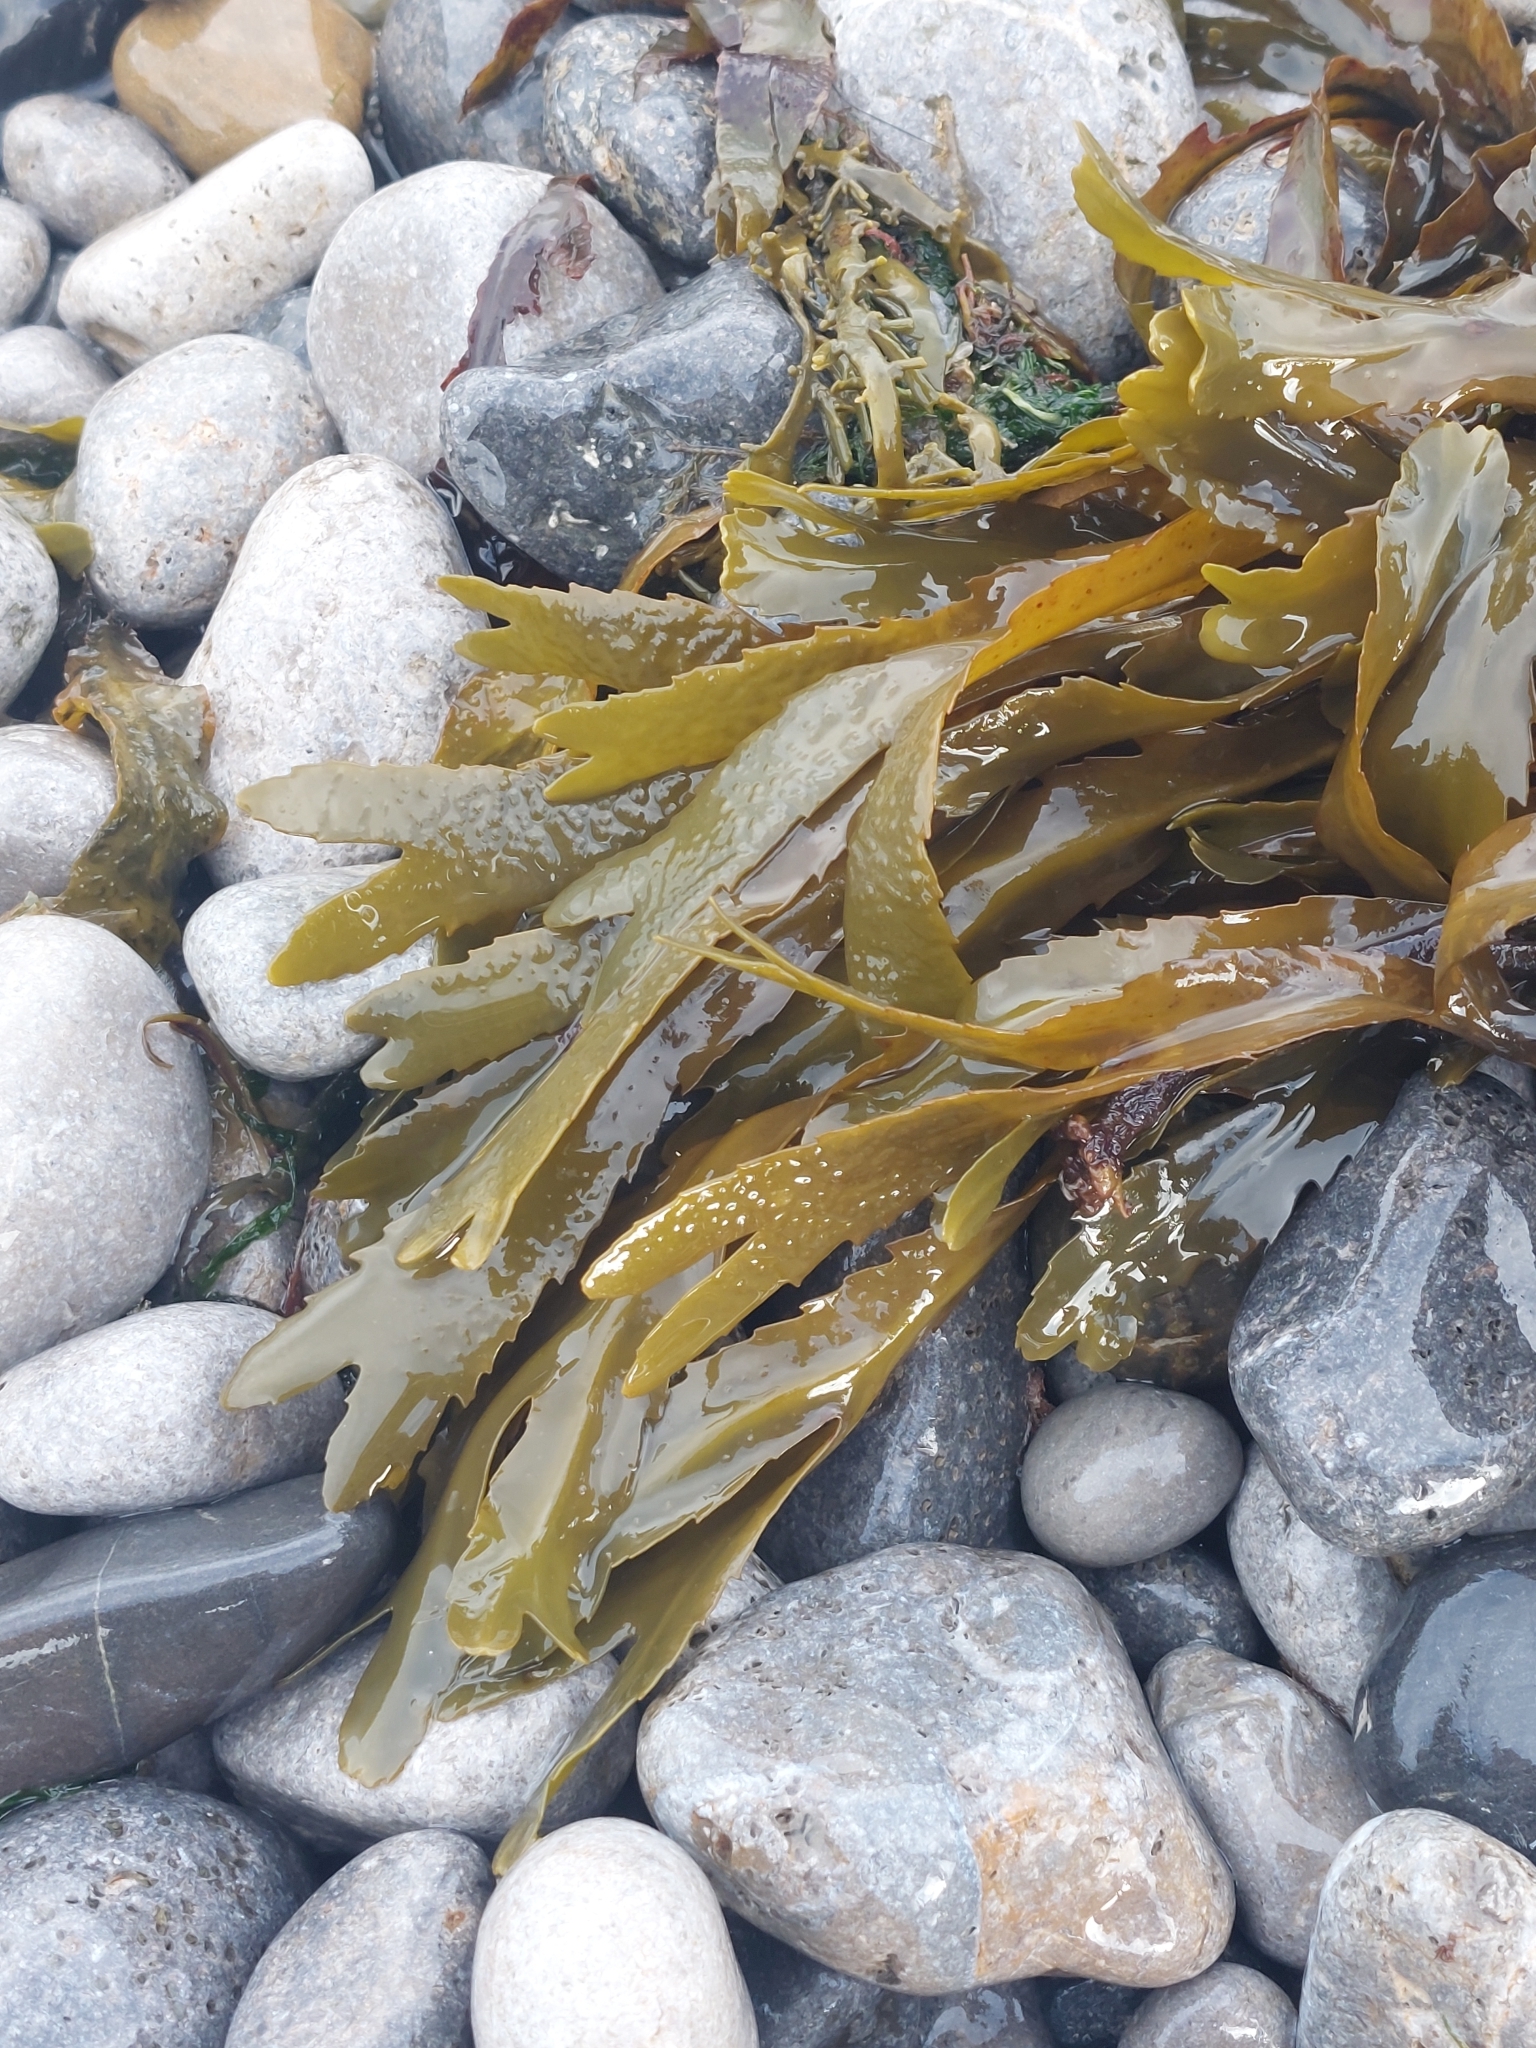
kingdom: Chromista
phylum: Ochrophyta
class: Phaeophyceae
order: Fucales
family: Fucaceae
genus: Fucus
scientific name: Fucus serratus
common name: Toothed wrack
